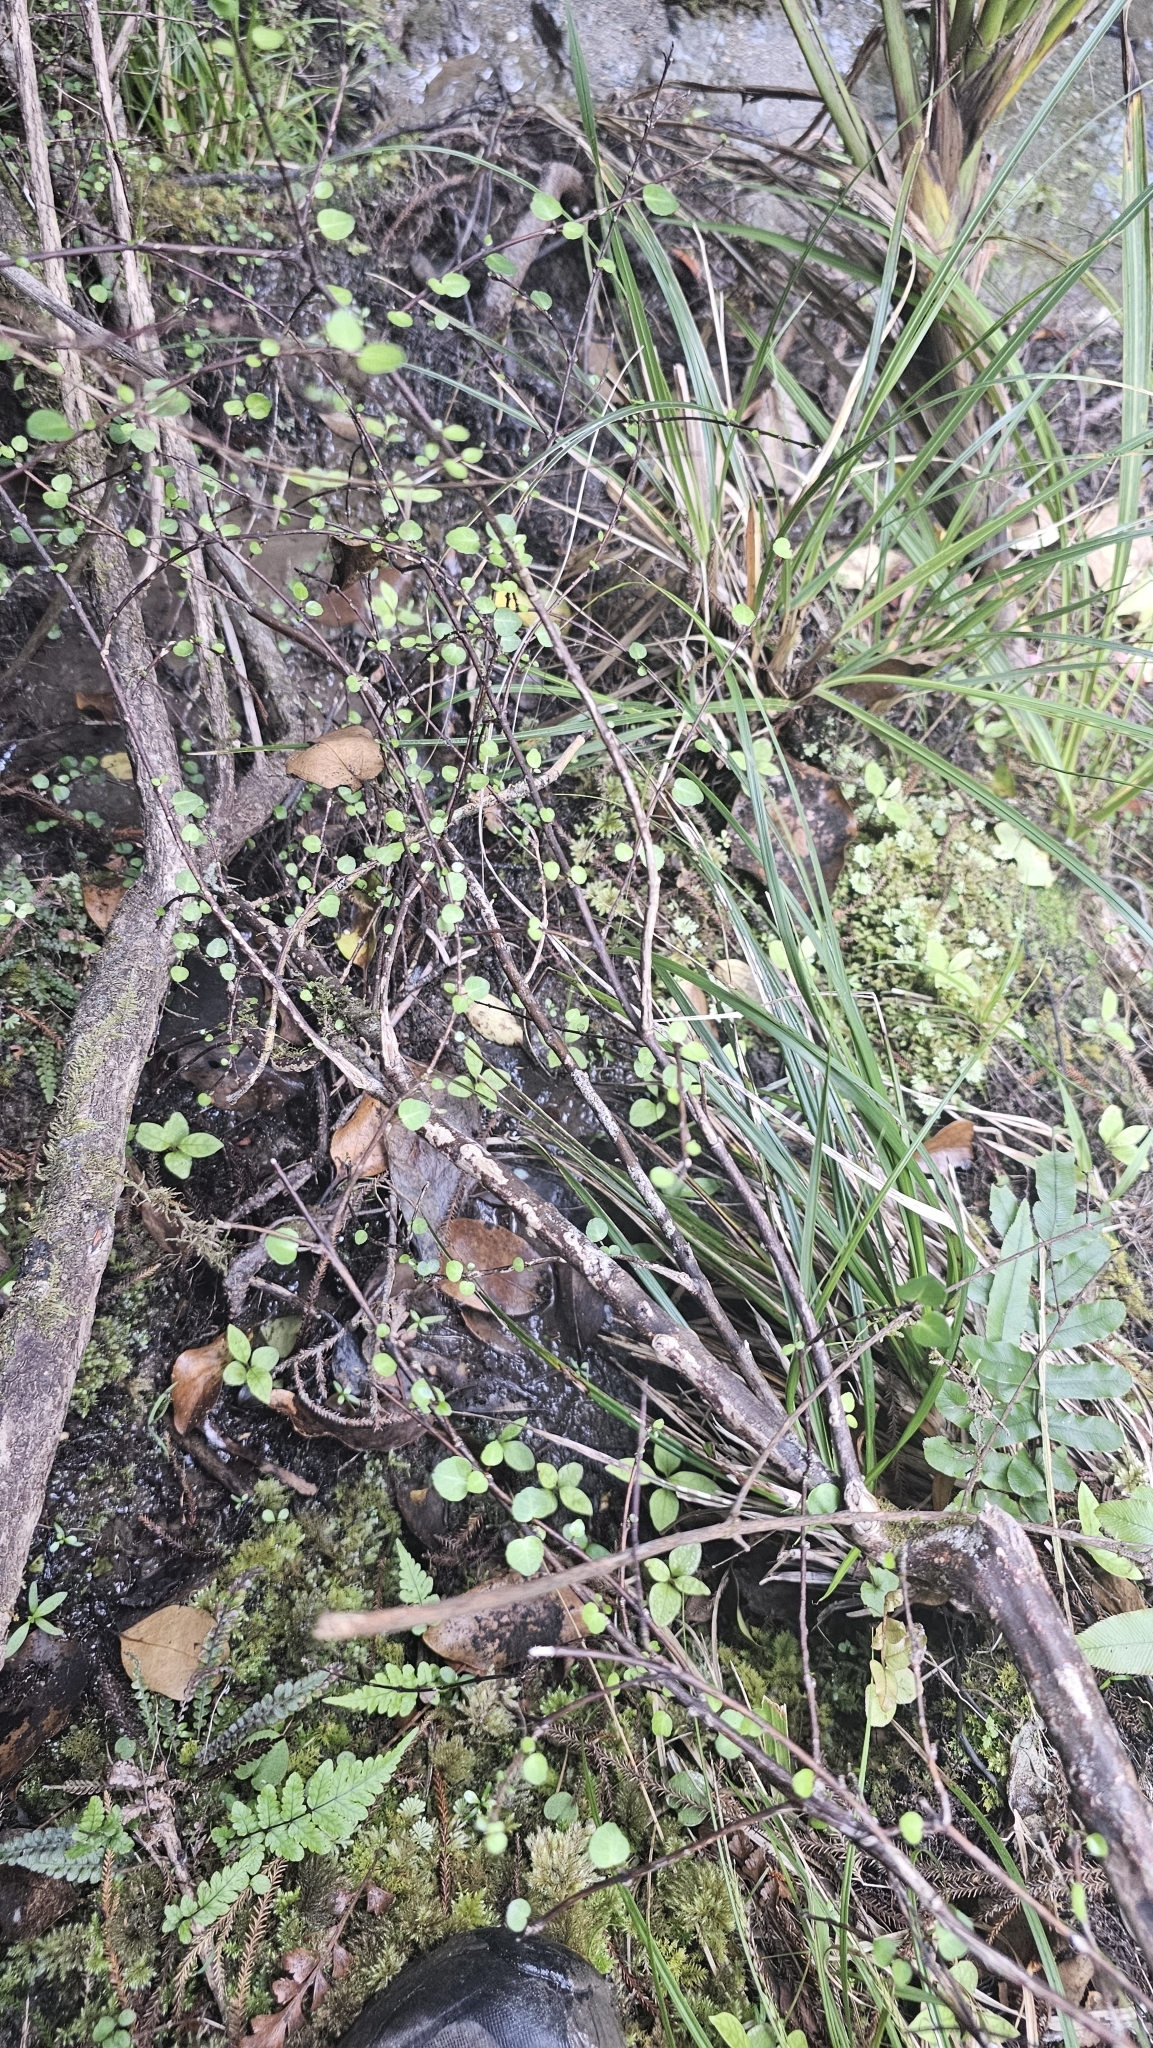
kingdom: Plantae
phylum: Tracheophyta
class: Magnoliopsida
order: Sapindales
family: Rutaceae
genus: Melicope
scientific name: Melicope simplex
